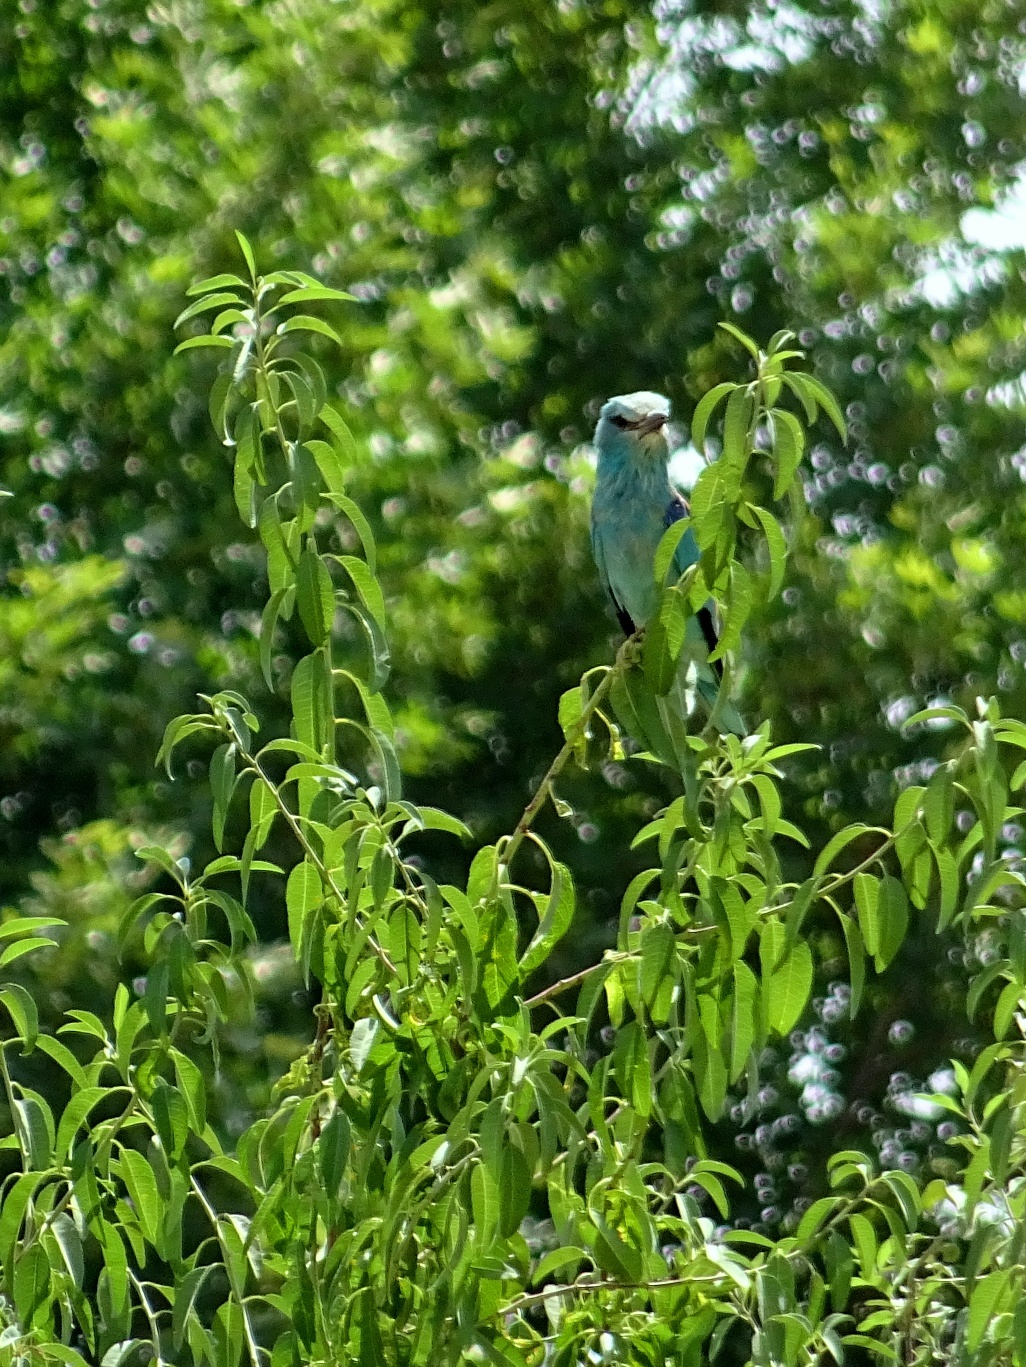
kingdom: Animalia
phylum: Chordata
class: Aves
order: Coraciiformes
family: Coraciidae
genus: Coracias
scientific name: Coracias garrulus
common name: European roller
